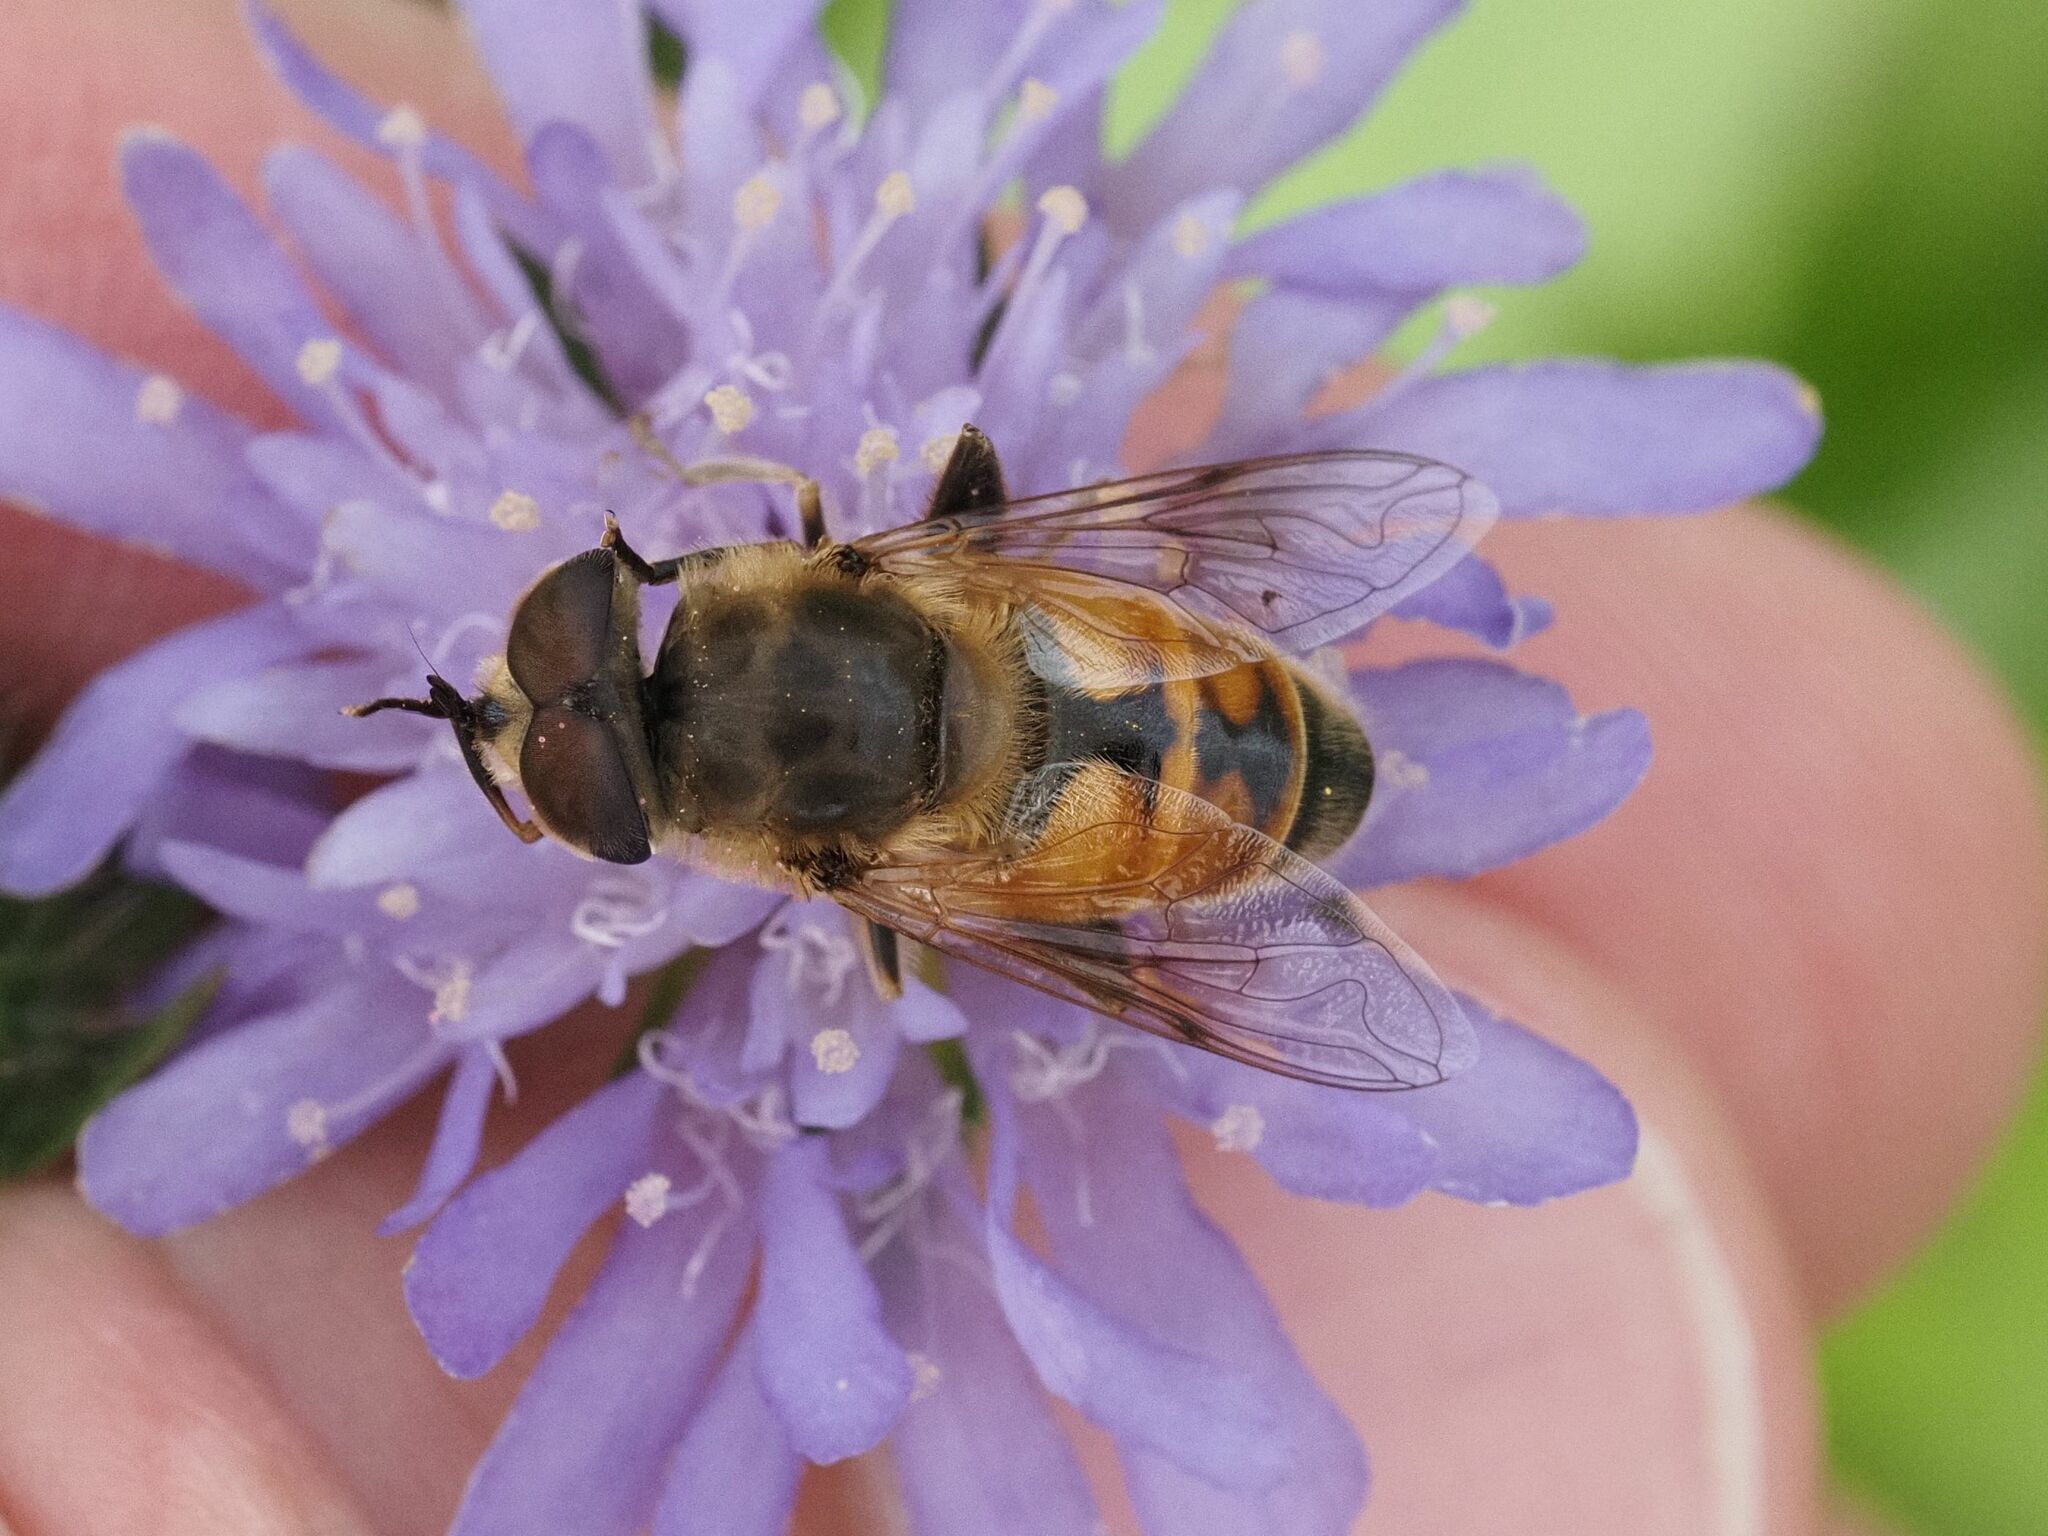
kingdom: Animalia
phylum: Arthropoda
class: Insecta
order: Diptera
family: Syrphidae
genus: Eristalis
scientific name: Eristalis tenax
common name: Drone fly
